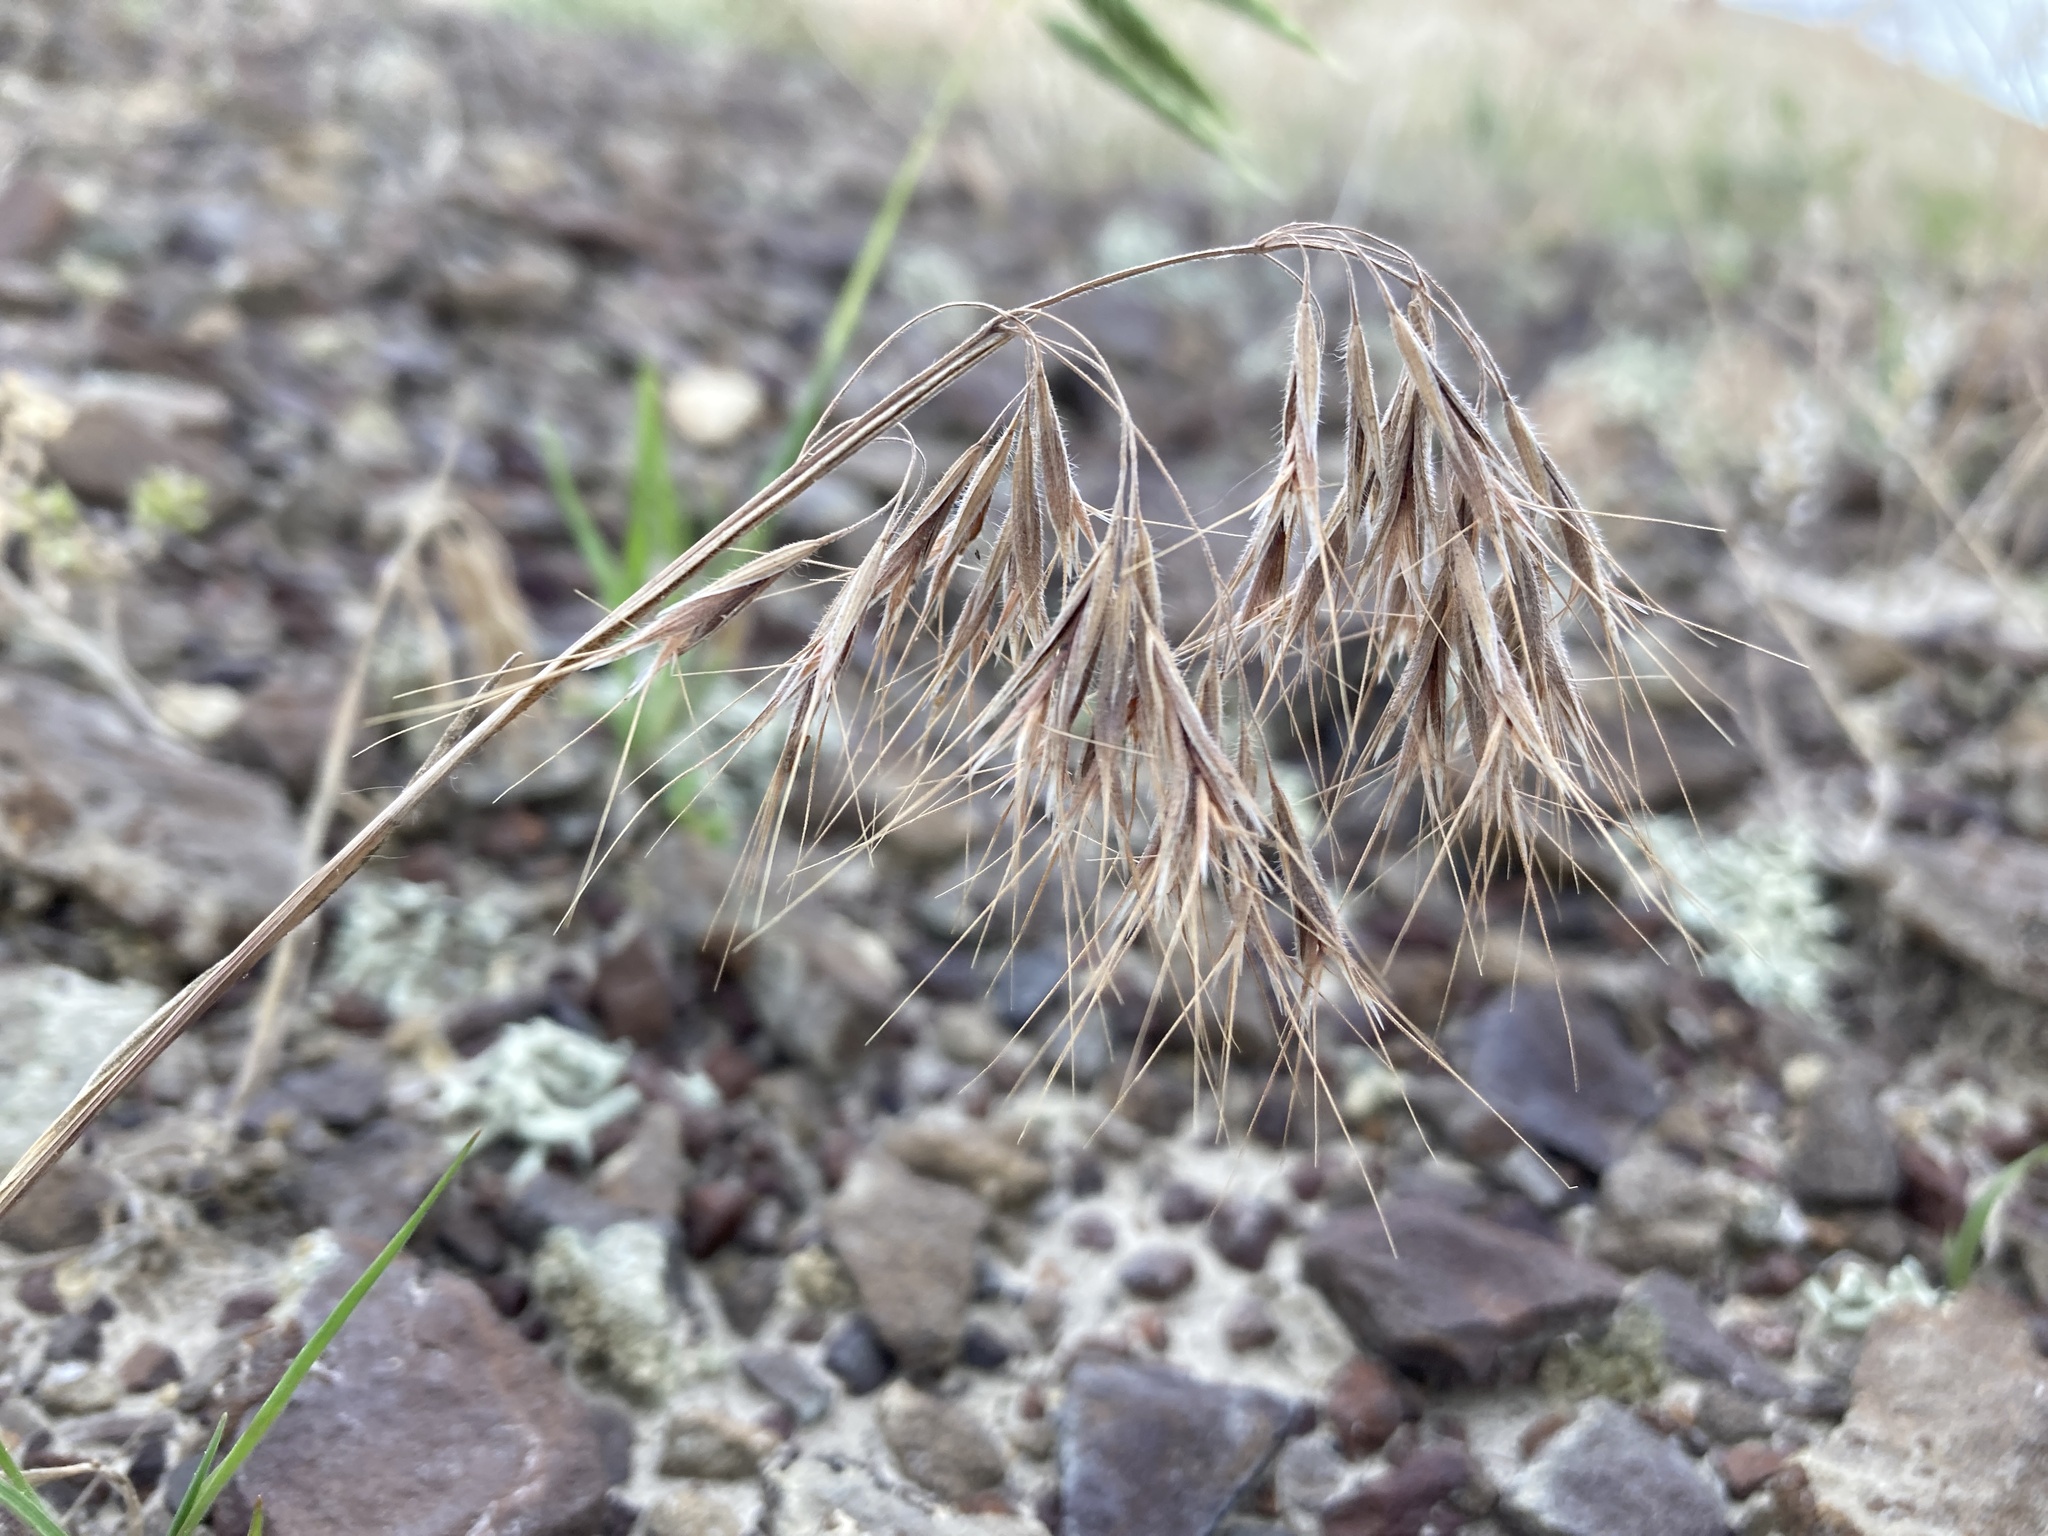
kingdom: Plantae
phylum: Tracheophyta
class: Liliopsida
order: Poales
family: Poaceae
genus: Bromus
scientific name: Bromus tectorum
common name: Cheatgrass
